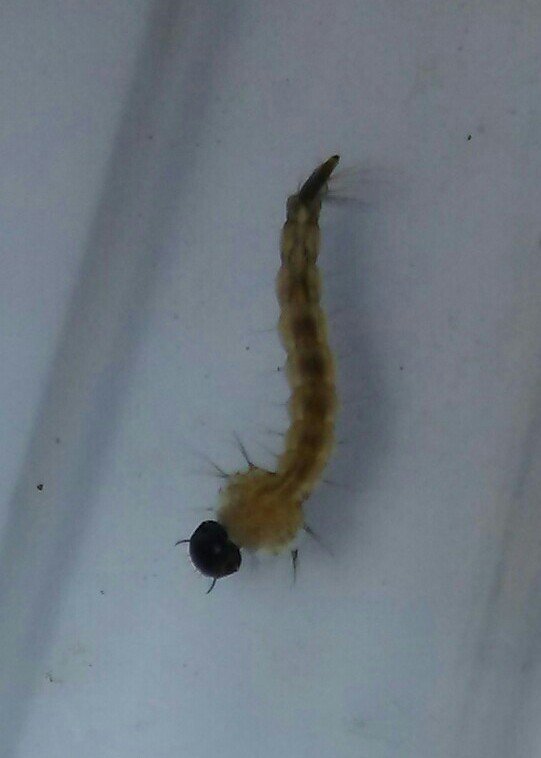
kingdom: Animalia
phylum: Arthropoda
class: Insecta
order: Diptera
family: Culicidae
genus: Aedes
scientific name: Aedes japonicus
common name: Asian bush mosquito
